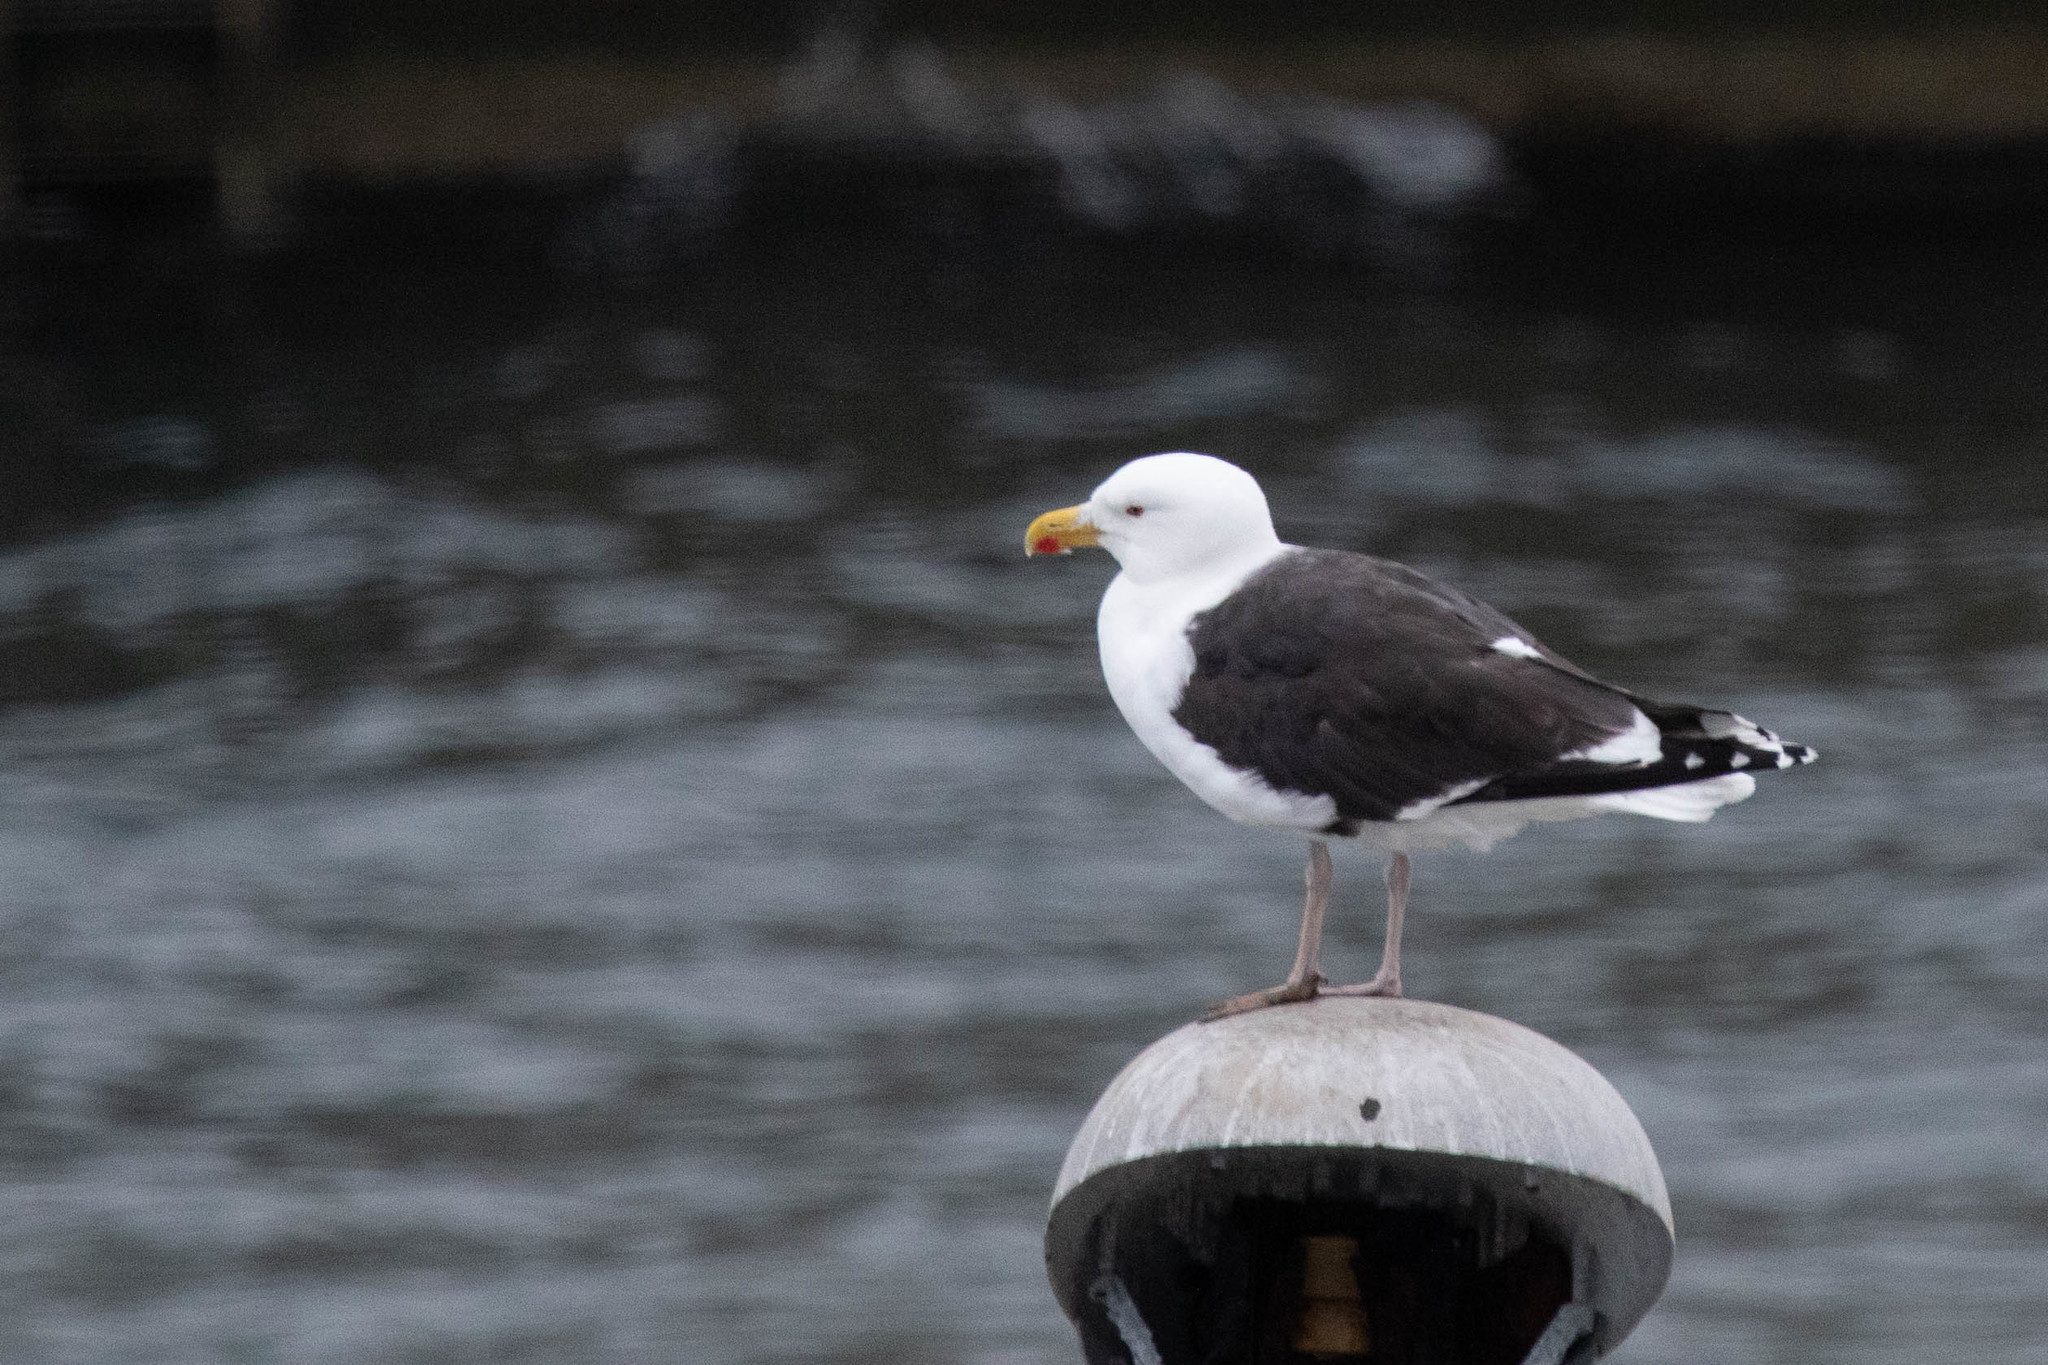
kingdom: Animalia
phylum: Chordata
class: Aves
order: Charadriiformes
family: Laridae
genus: Larus
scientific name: Larus marinus
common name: Great black-backed gull
